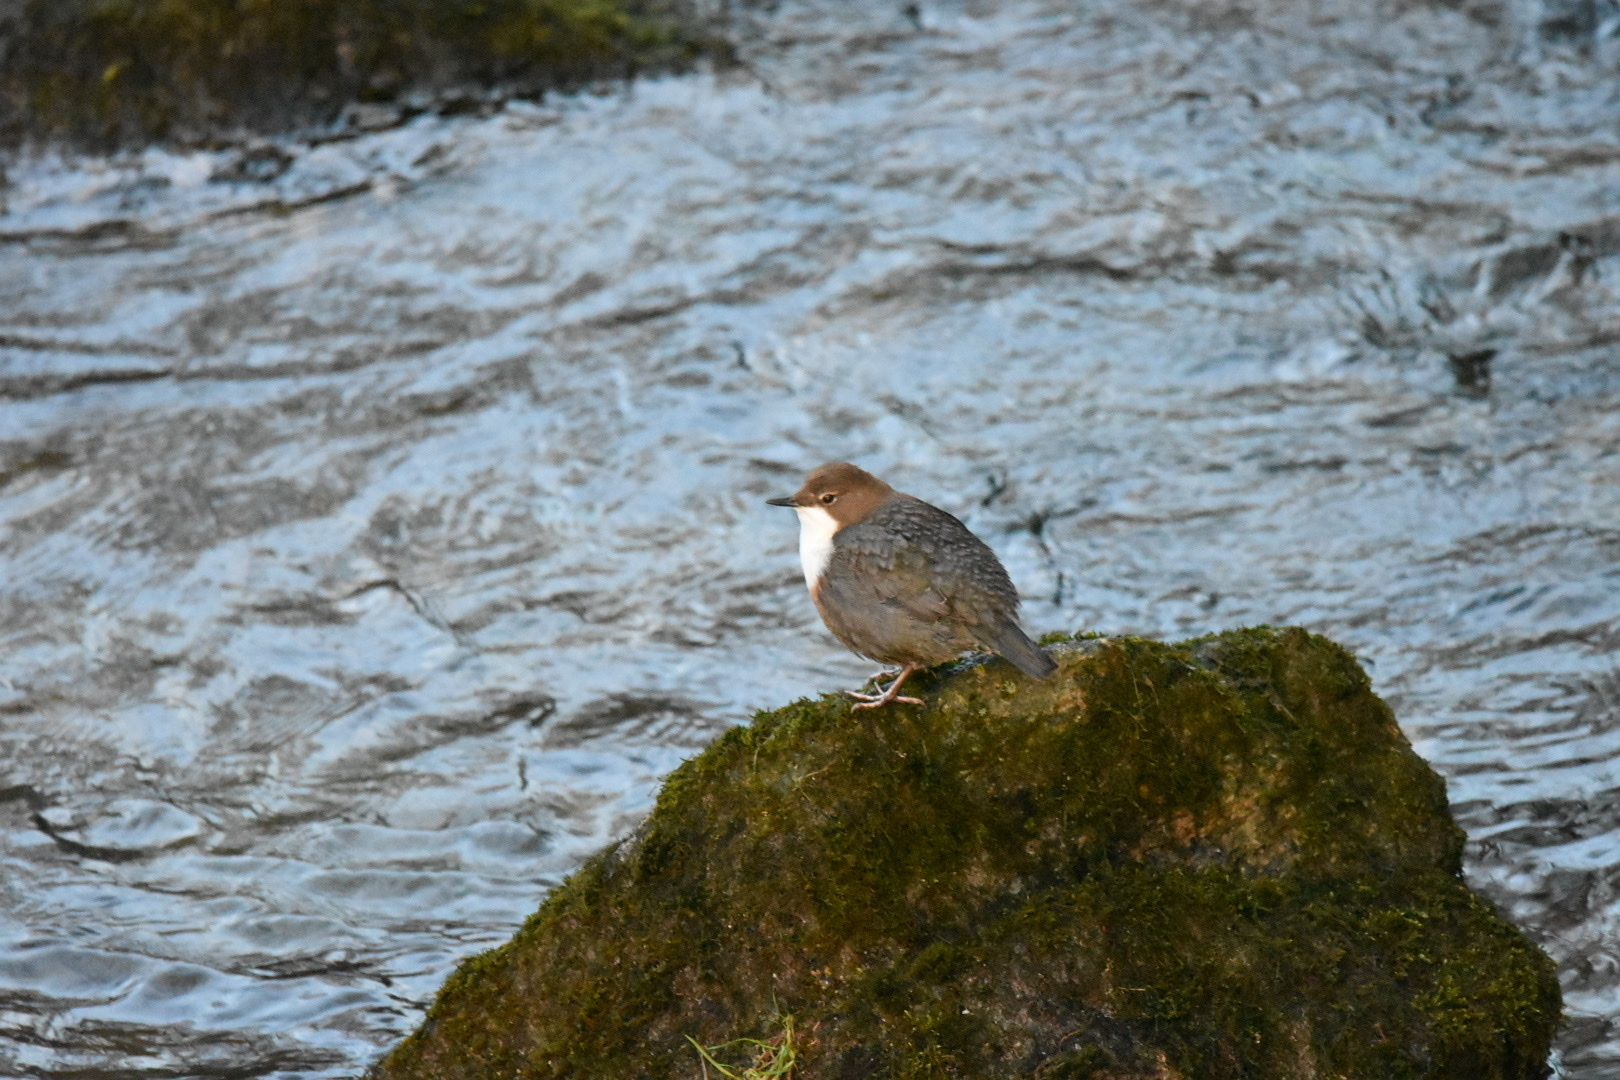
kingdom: Animalia
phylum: Chordata
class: Aves
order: Passeriformes
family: Cinclidae
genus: Cinclus
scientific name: Cinclus cinclus
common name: White-throated dipper
